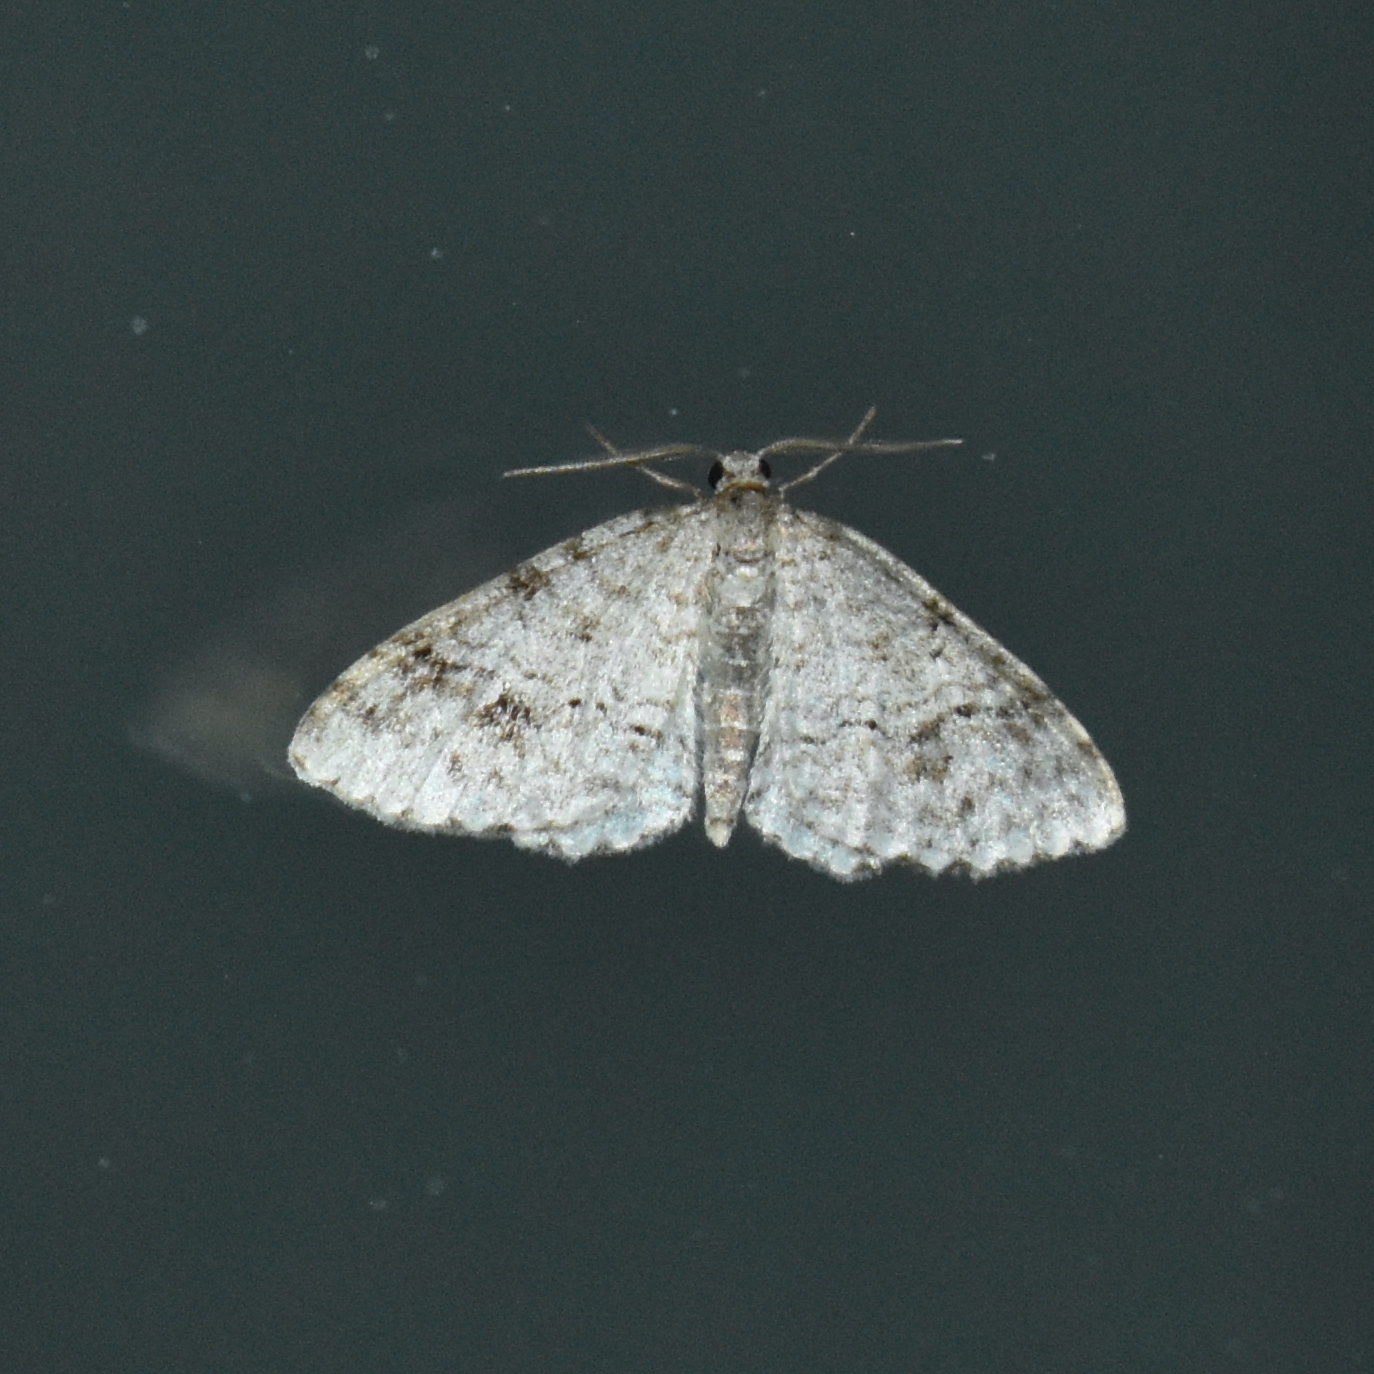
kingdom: Animalia
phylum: Arthropoda
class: Insecta
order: Lepidoptera
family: Geometridae
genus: Venusia
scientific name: Venusia cambrica
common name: Welsh wave
